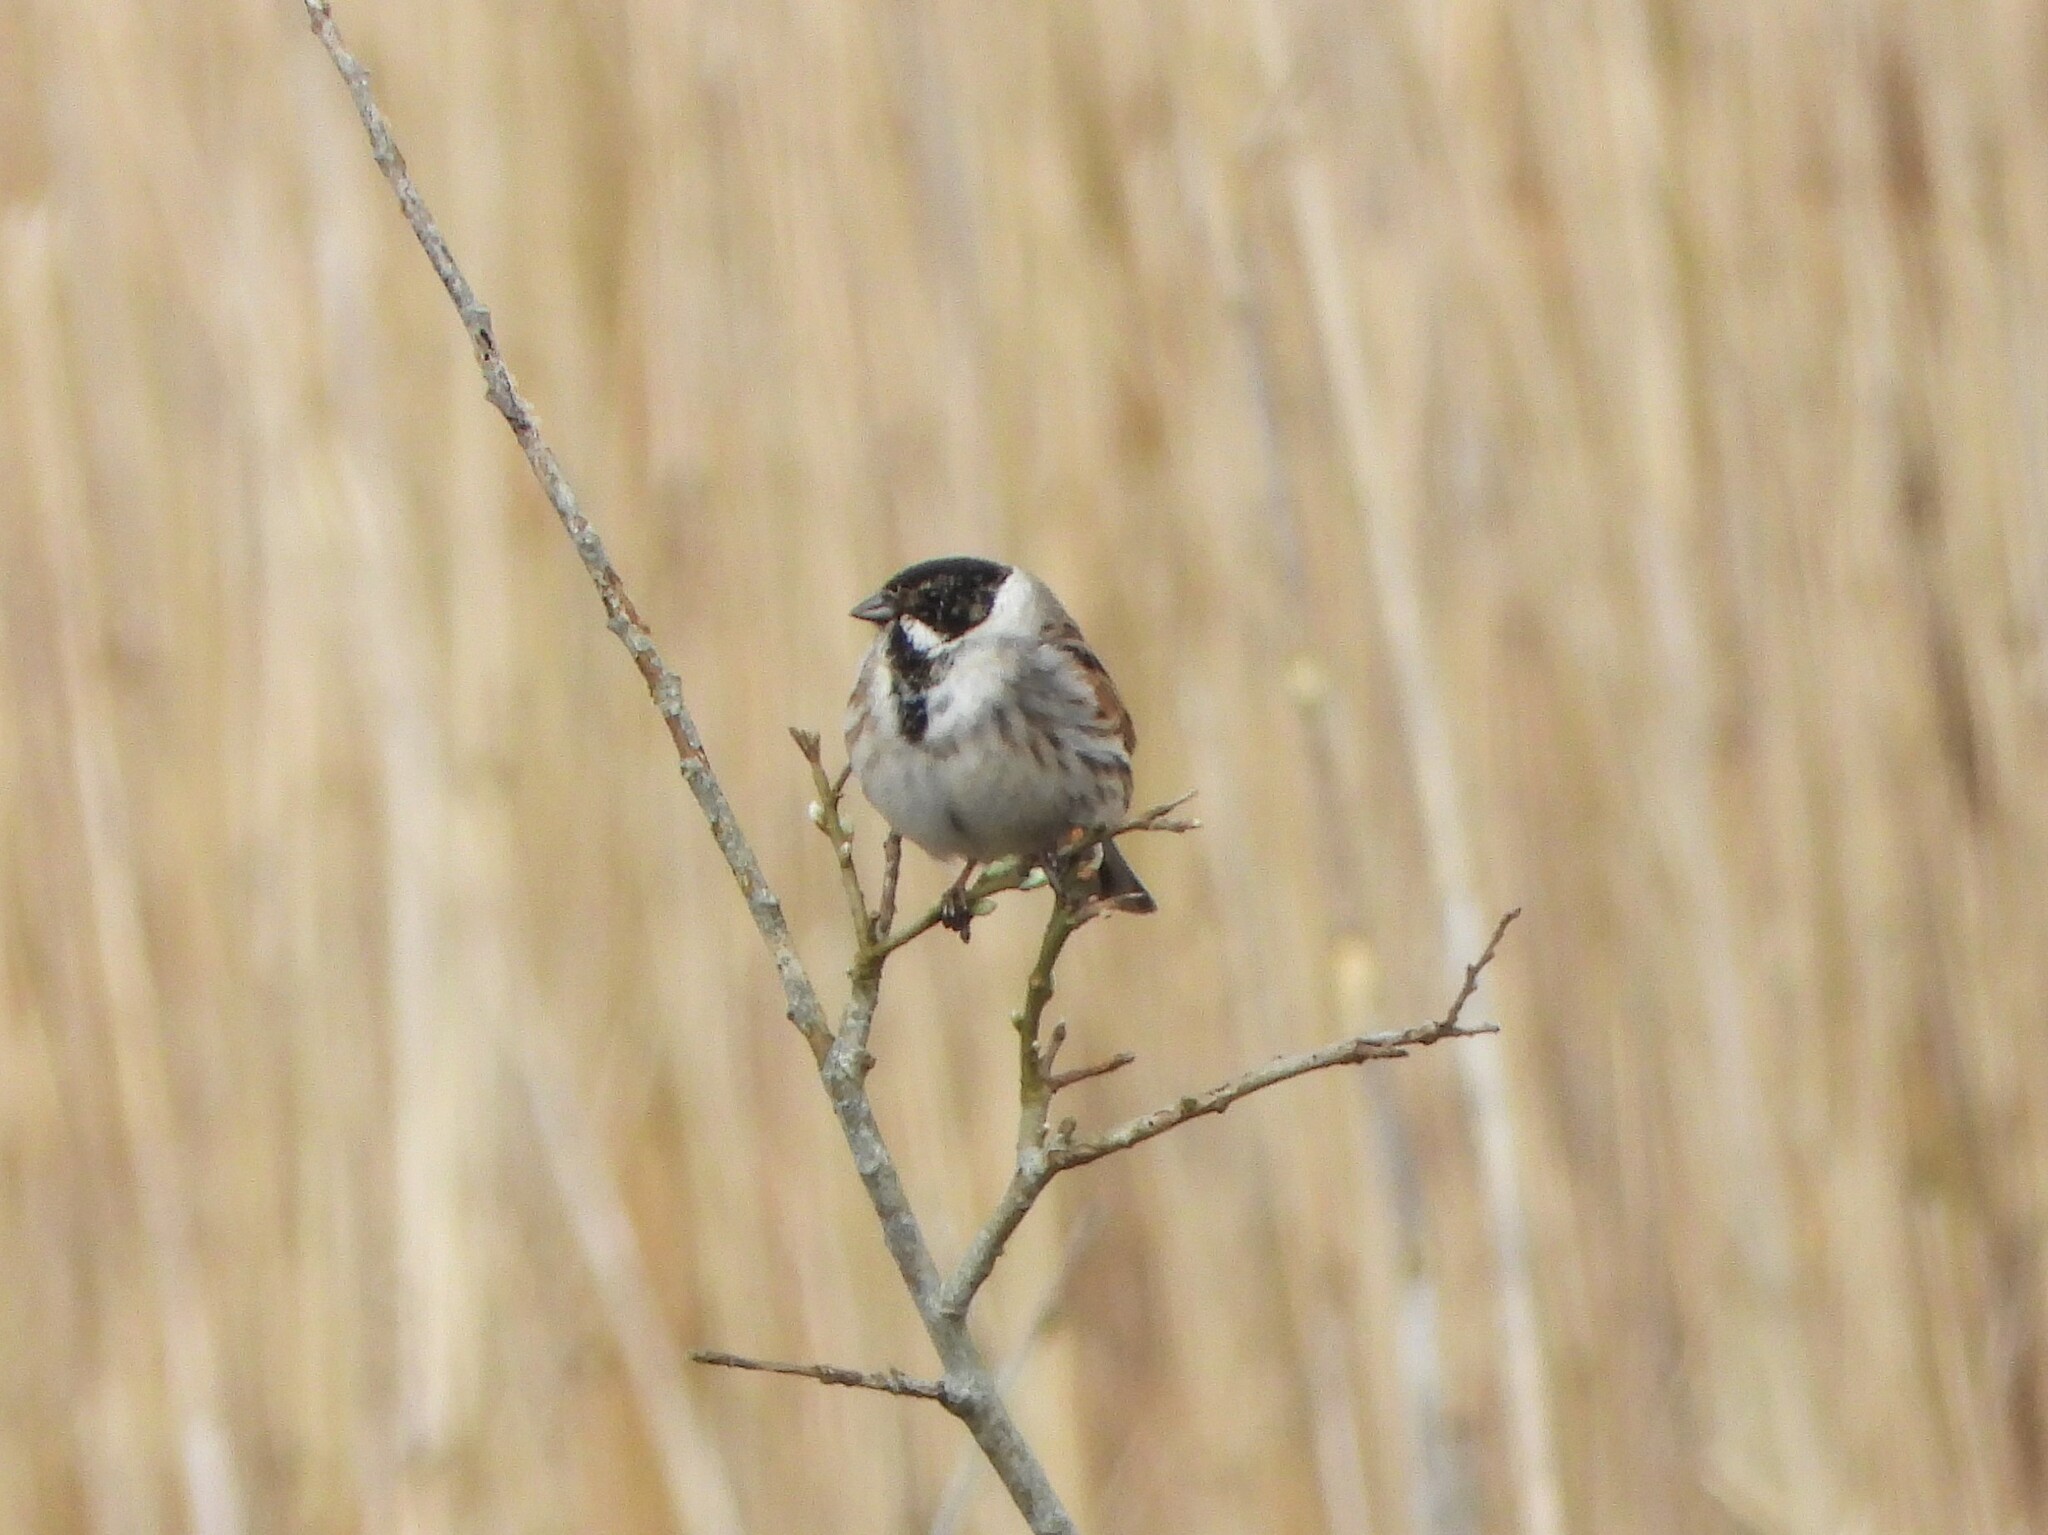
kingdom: Animalia
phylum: Chordata
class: Aves
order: Passeriformes
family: Emberizidae
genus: Emberiza
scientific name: Emberiza schoeniclus
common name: Reed bunting
